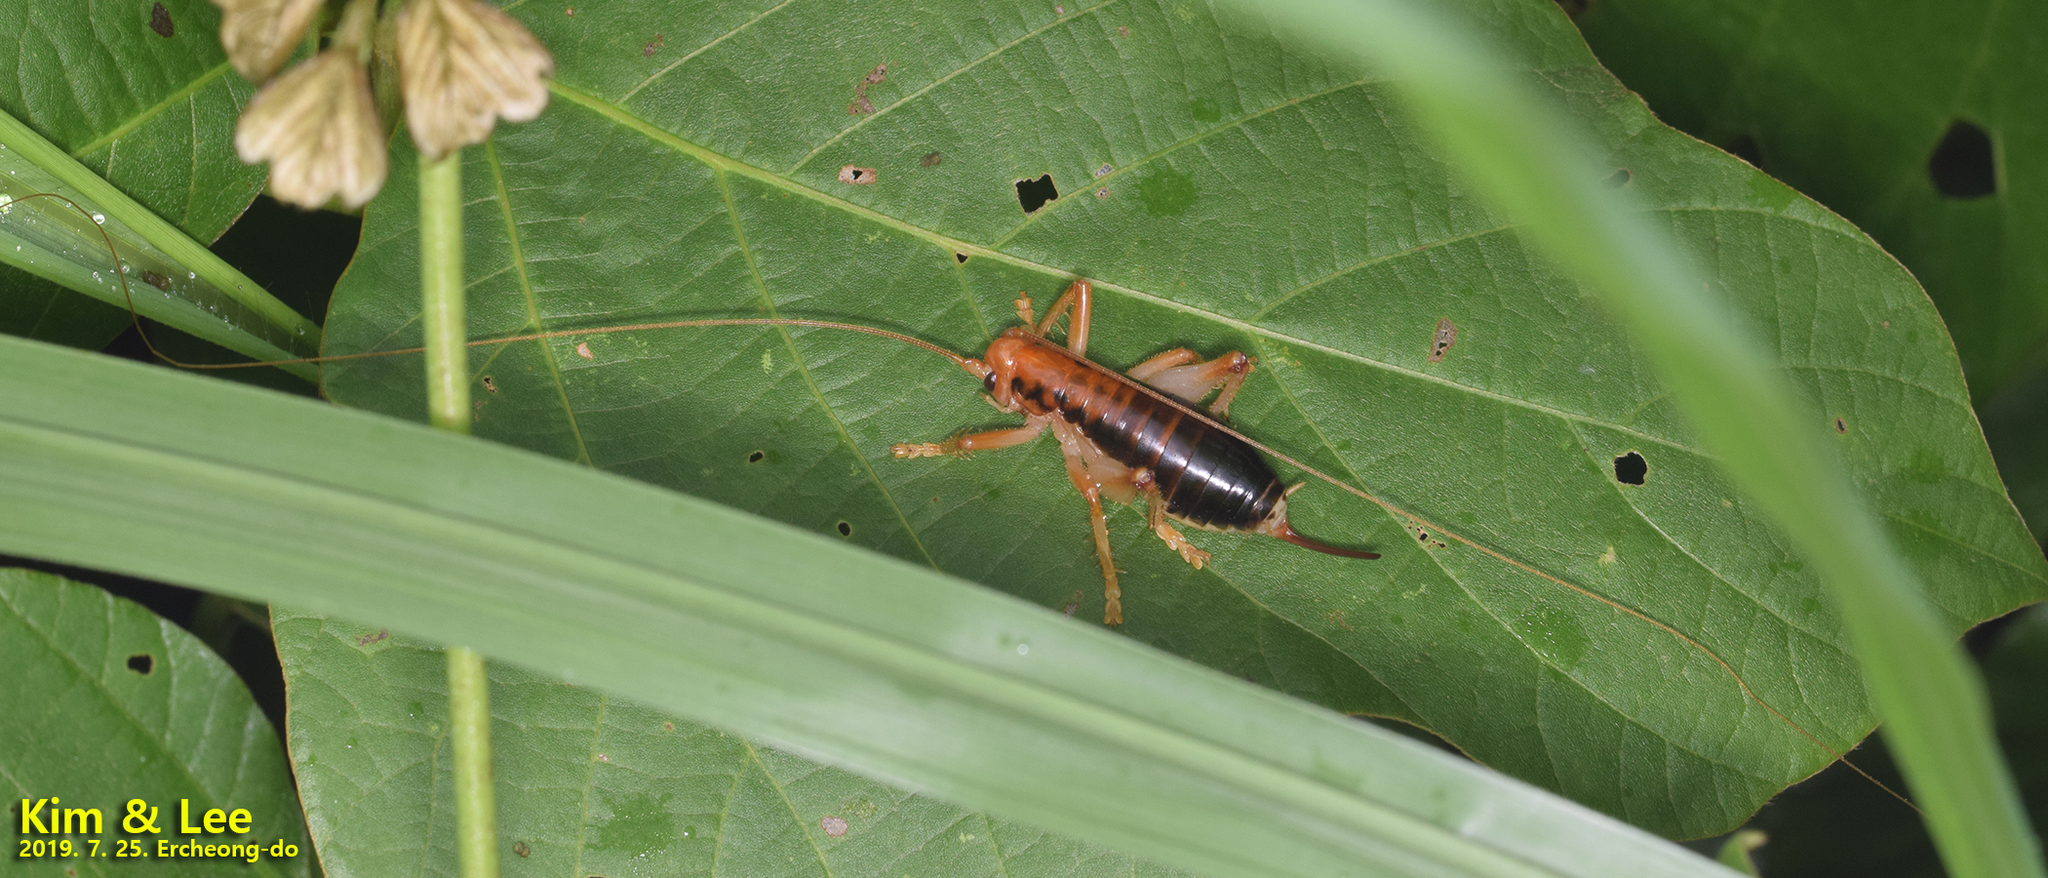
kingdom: Animalia
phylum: Arthropoda
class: Insecta
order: Orthoptera
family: Gryllacrididae
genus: Nippancistroger
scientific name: Nippancistroger koreanus
